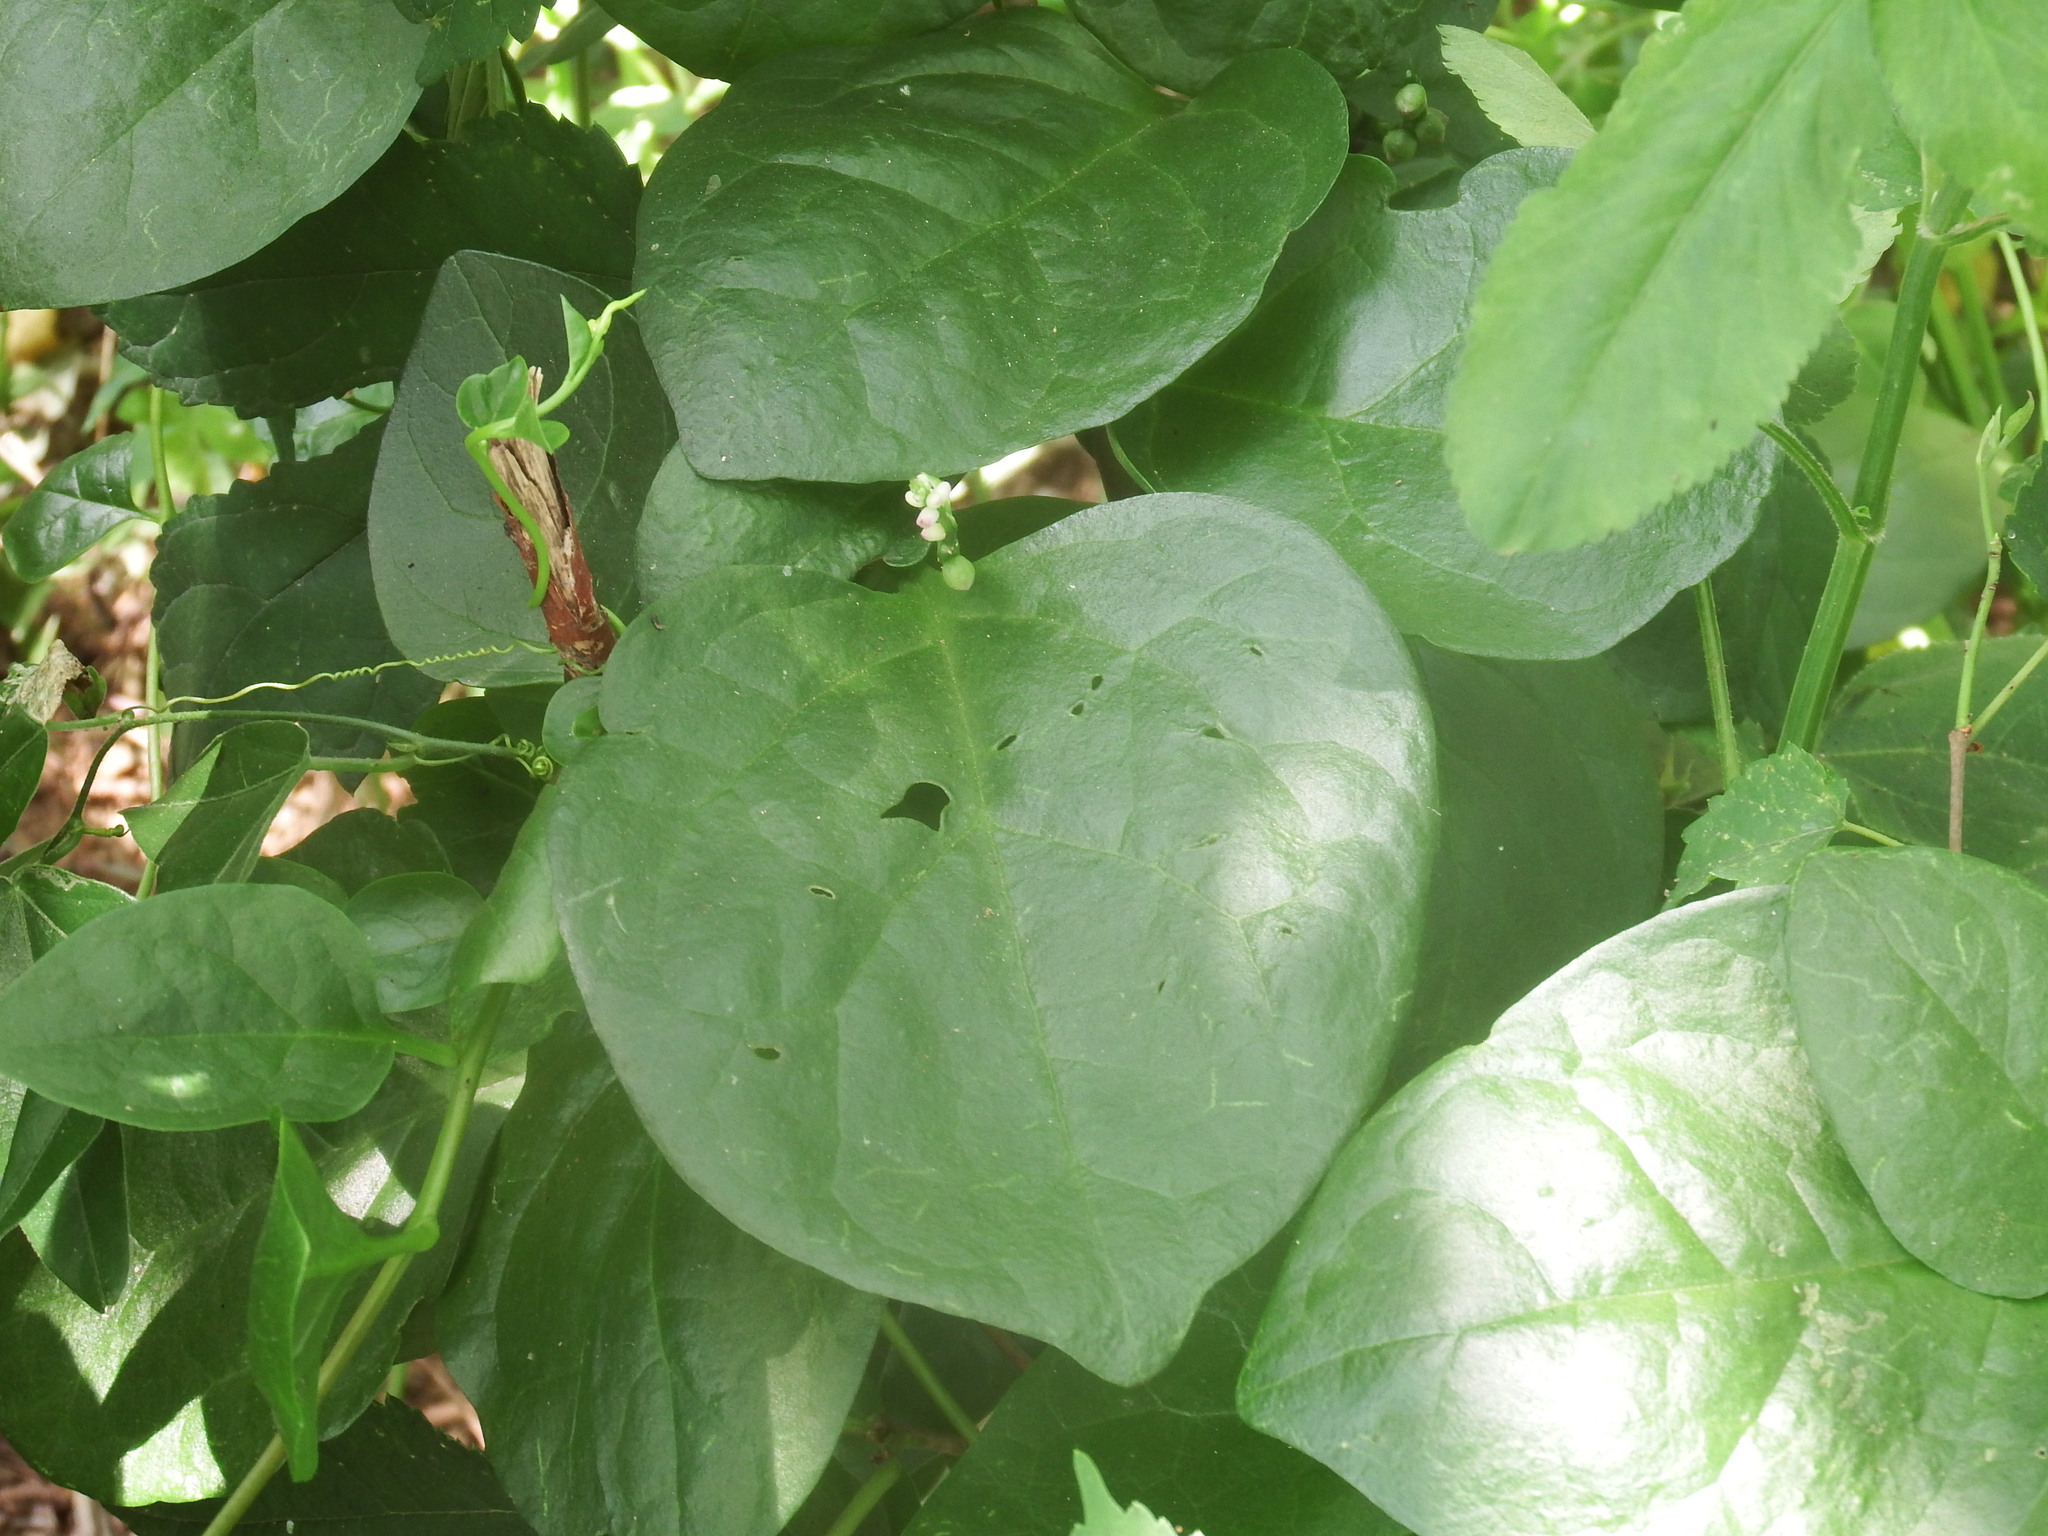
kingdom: Plantae
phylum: Tracheophyta
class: Magnoliopsida
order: Caryophyllales
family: Basellaceae
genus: Basella
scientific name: Basella alba
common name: Indian spinach
